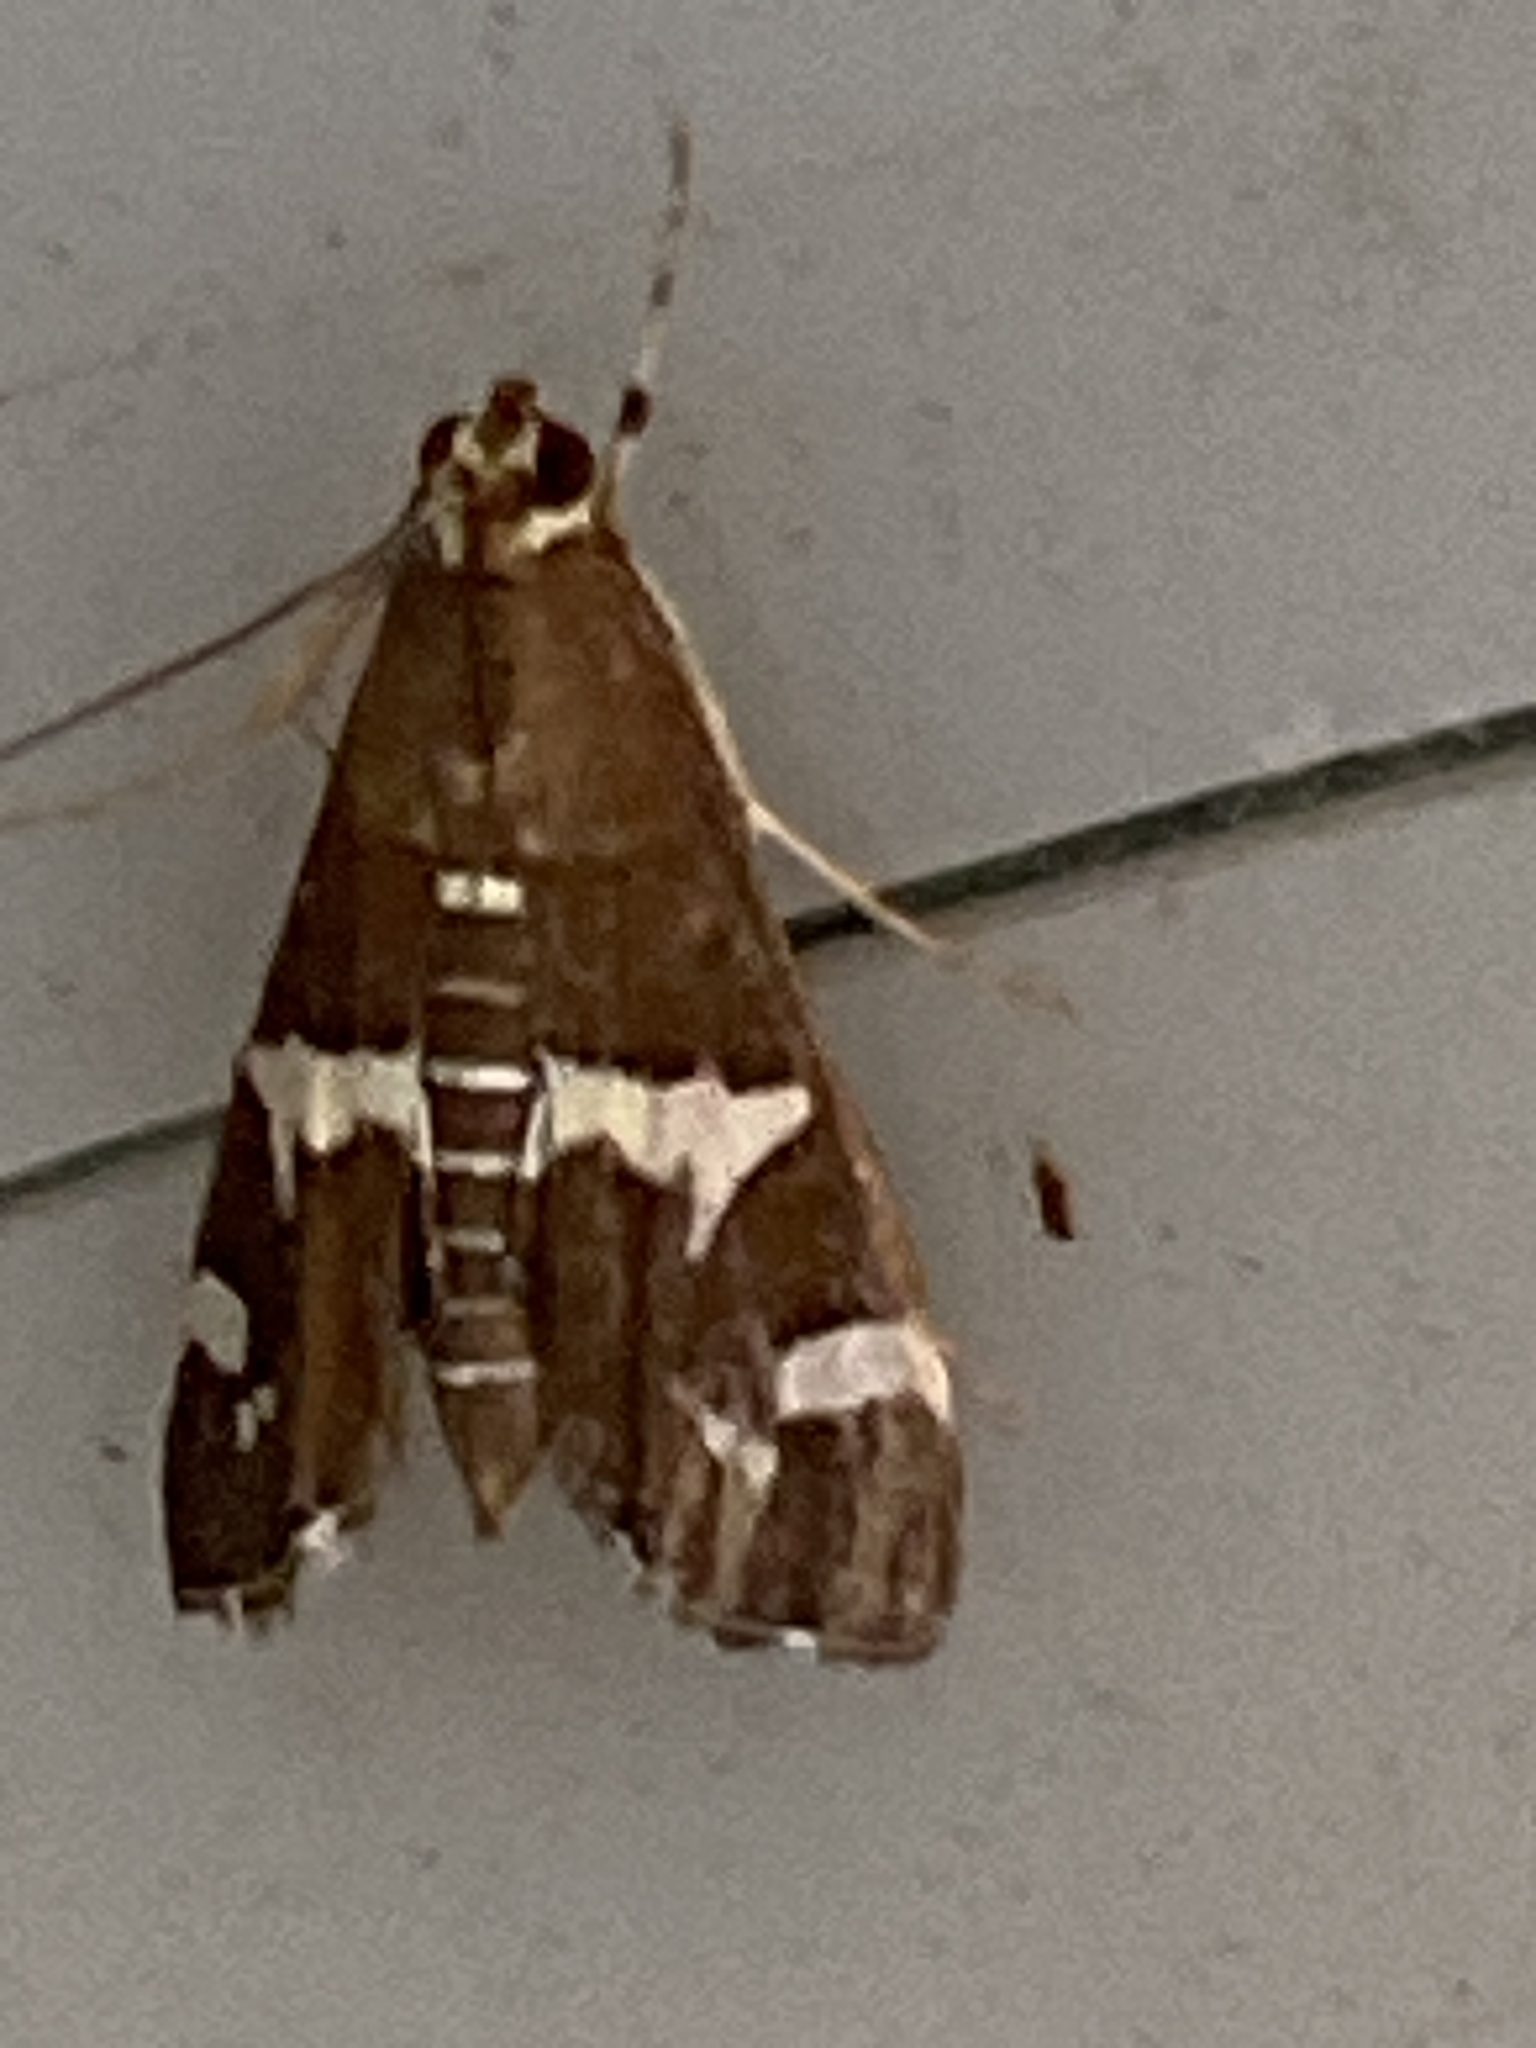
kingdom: Animalia
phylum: Arthropoda
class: Insecta
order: Lepidoptera
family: Crambidae
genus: Spoladea
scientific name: Spoladea recurvalis
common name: Beet webworm moth
